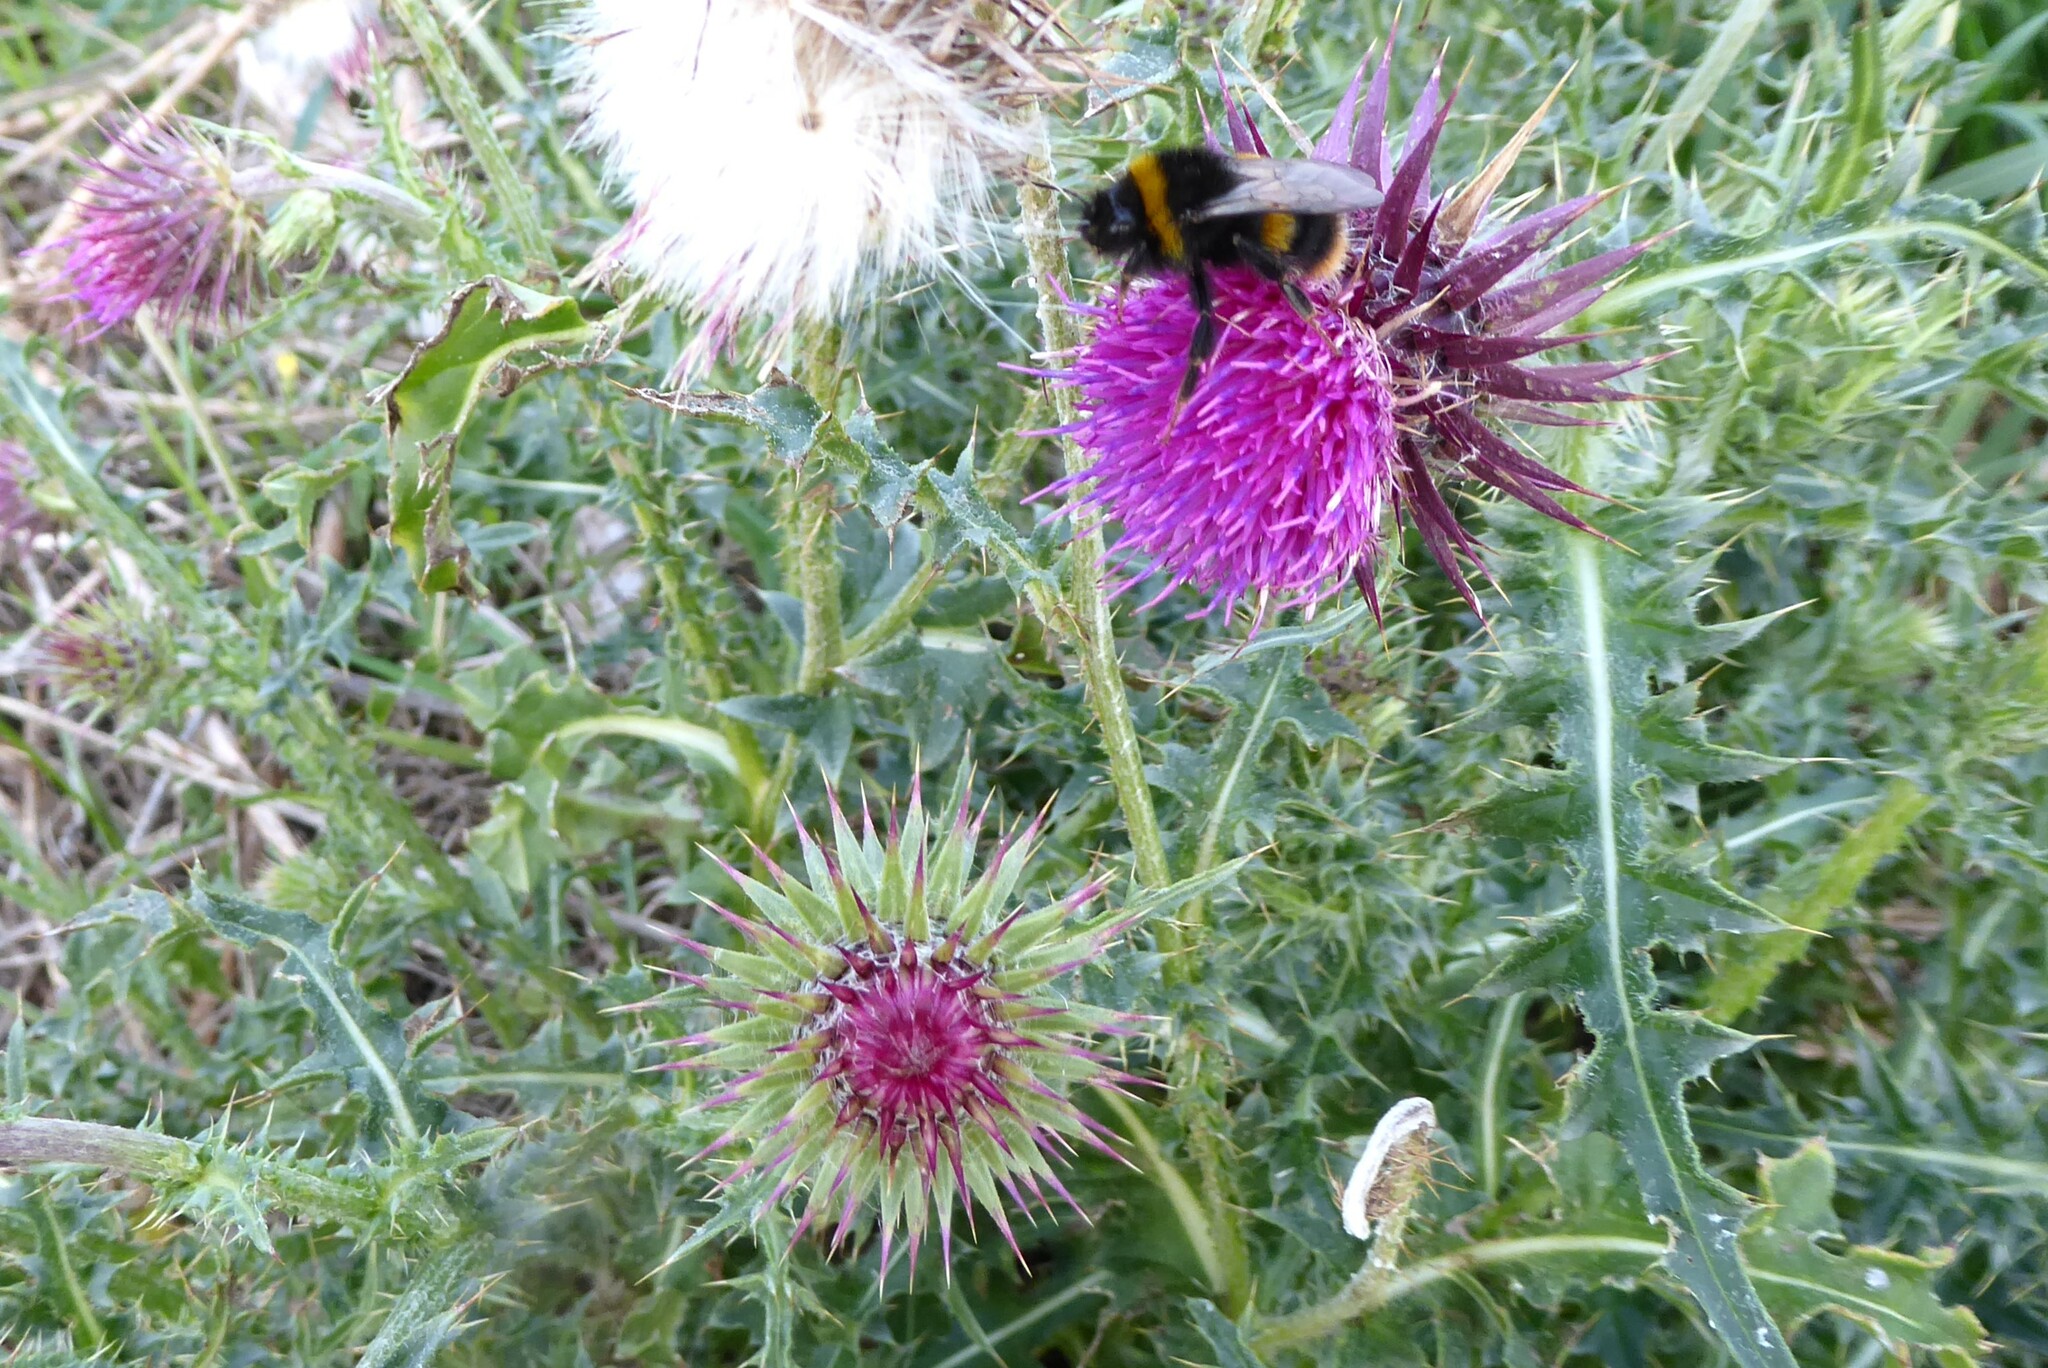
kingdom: Plantae
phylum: Tracheophyta
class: Magnoliopsida
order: Asterales
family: Asteraceae
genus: Carduus
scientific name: Carduus nutans
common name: Musk thistle
